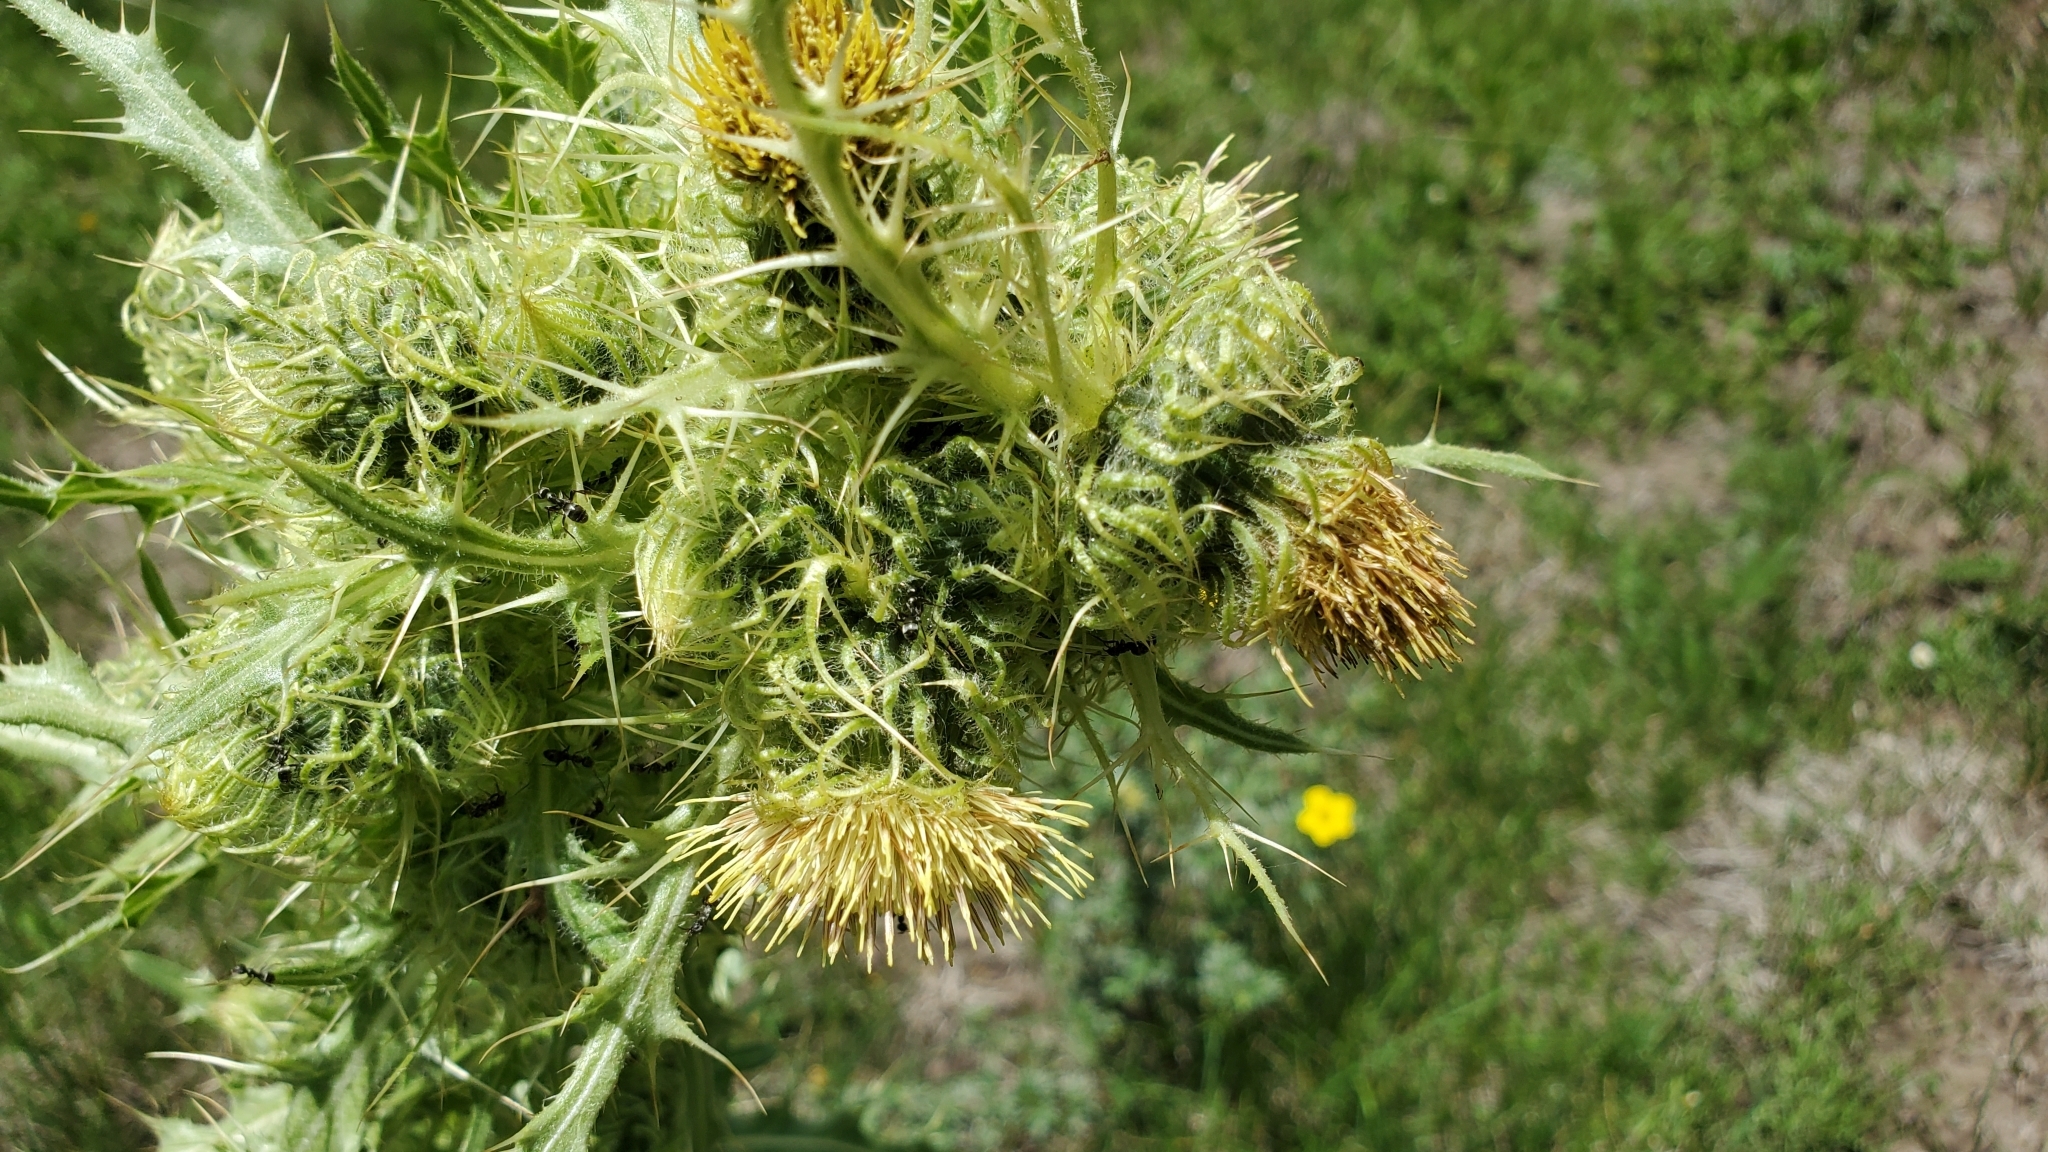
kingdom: Plantae
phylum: Tracheophyta
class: Magnoliopsida
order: Asterales
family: Asteraceae
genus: Cirsium
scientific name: Cirsium parryi
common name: Parry's thistle
